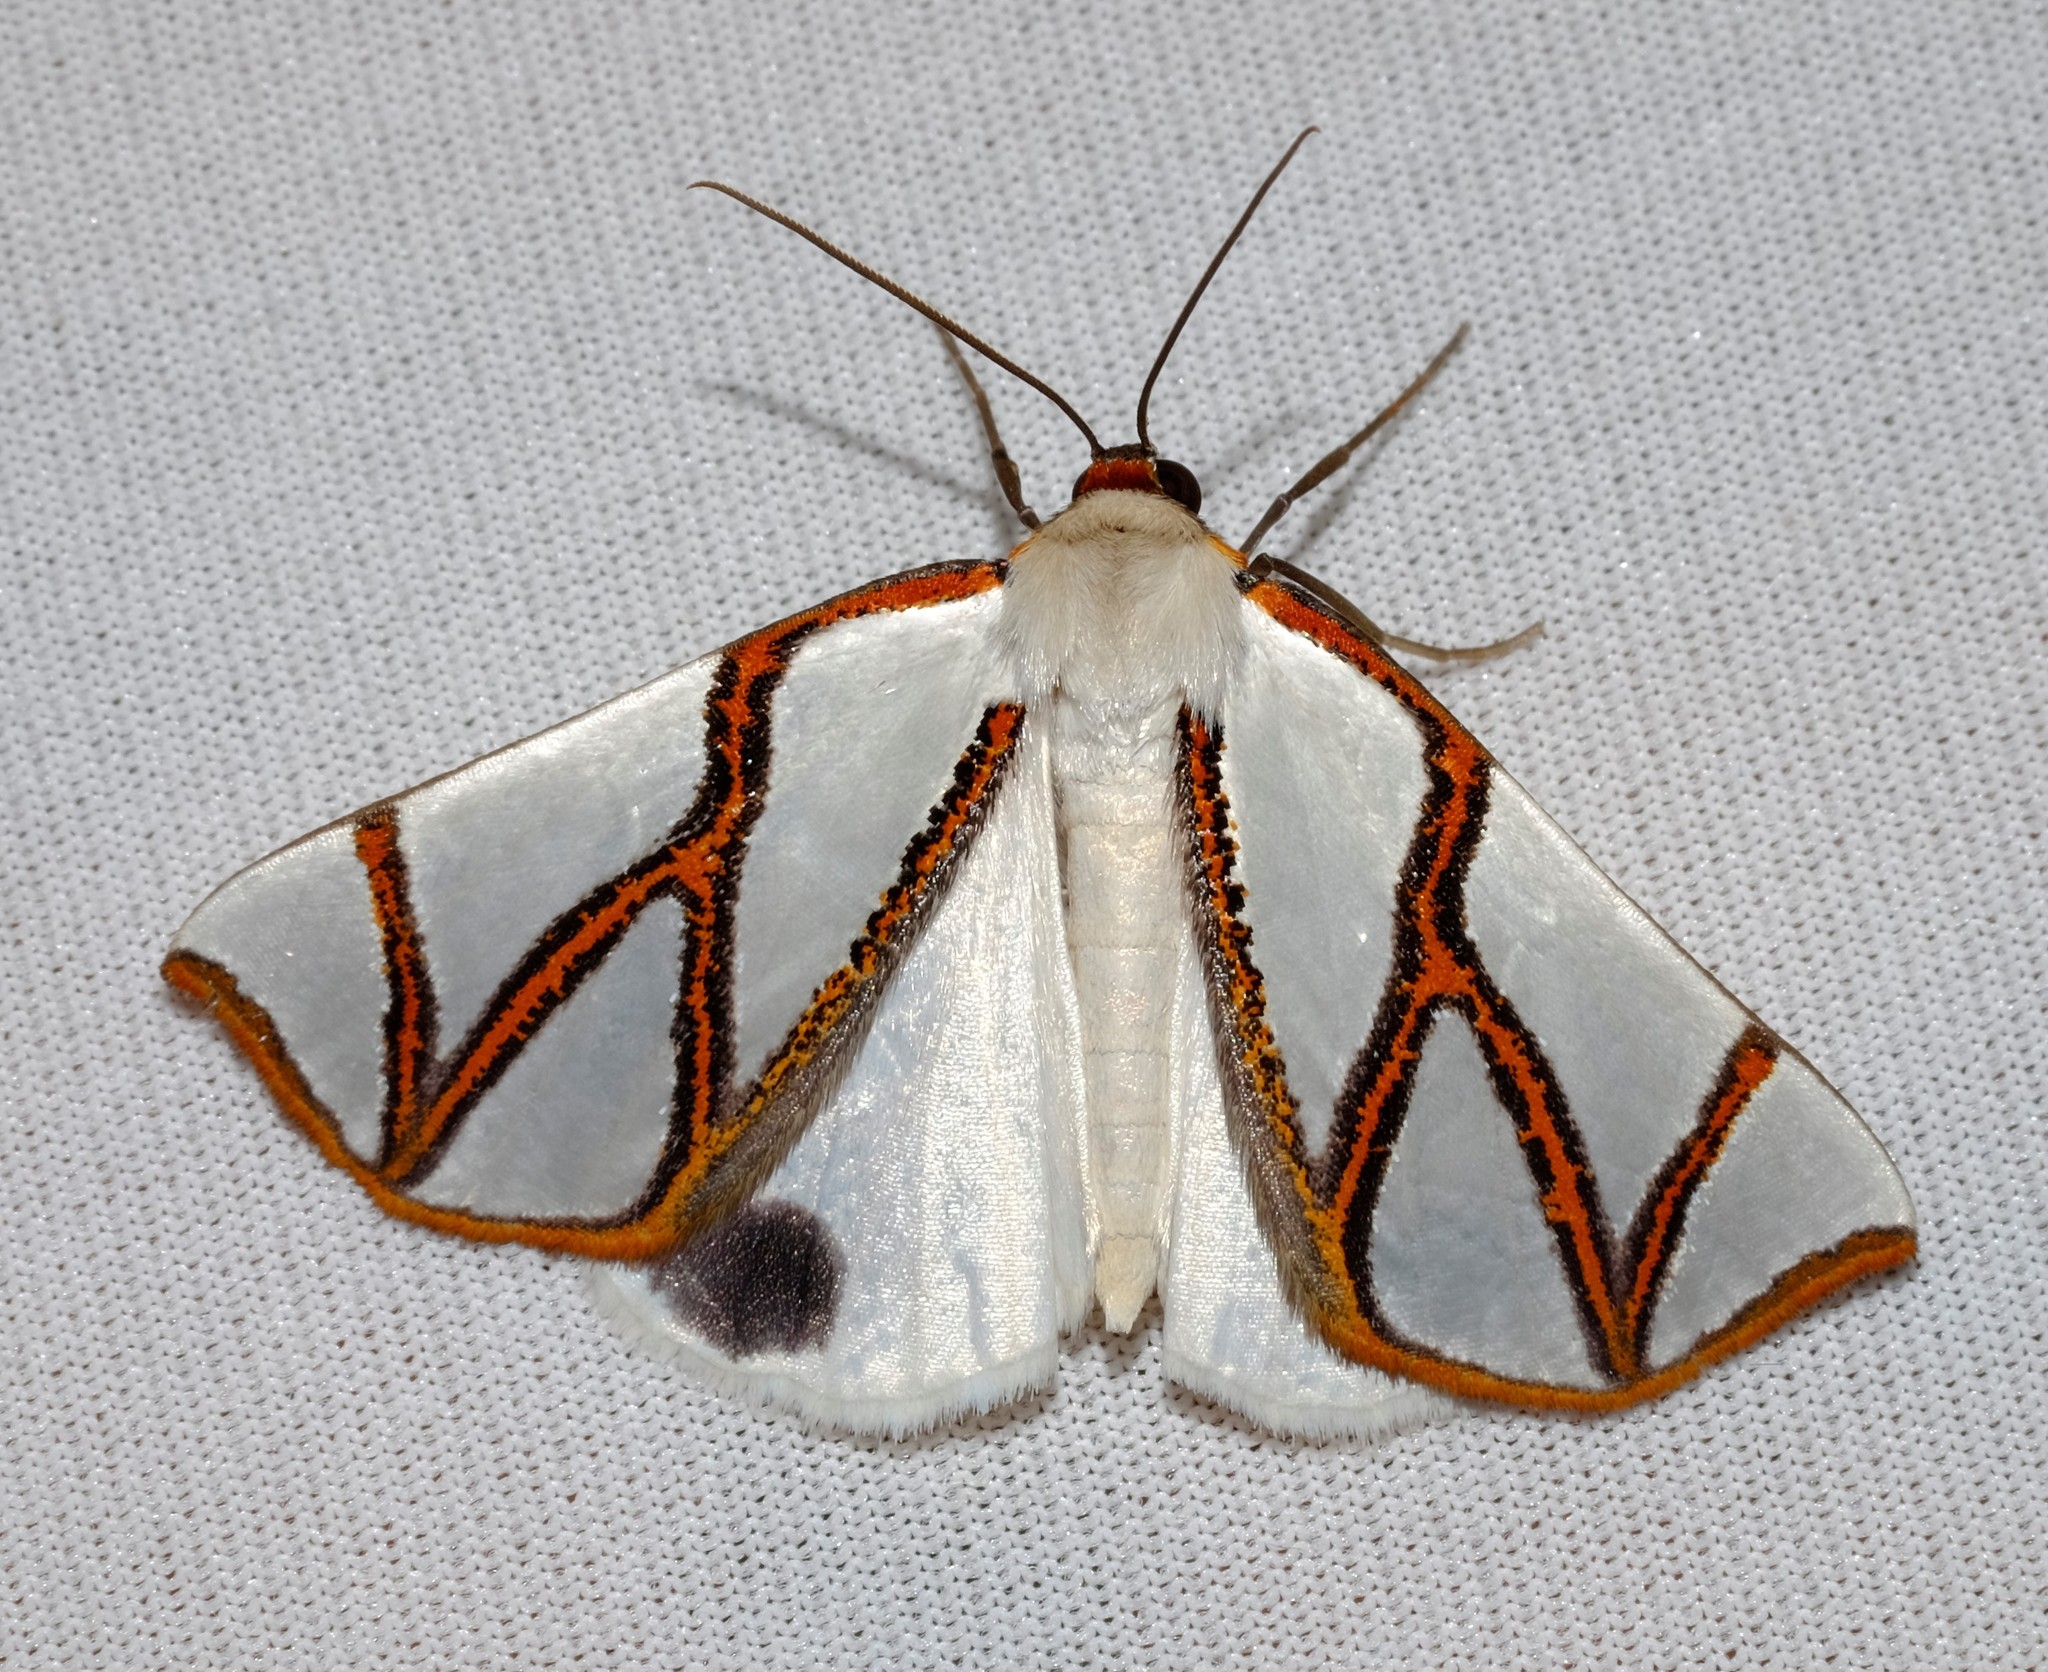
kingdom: Animalia
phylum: Arthropoda
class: Insecta
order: Lepidoptera
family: Geometridae
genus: Thalaina
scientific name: Thalaina clara
